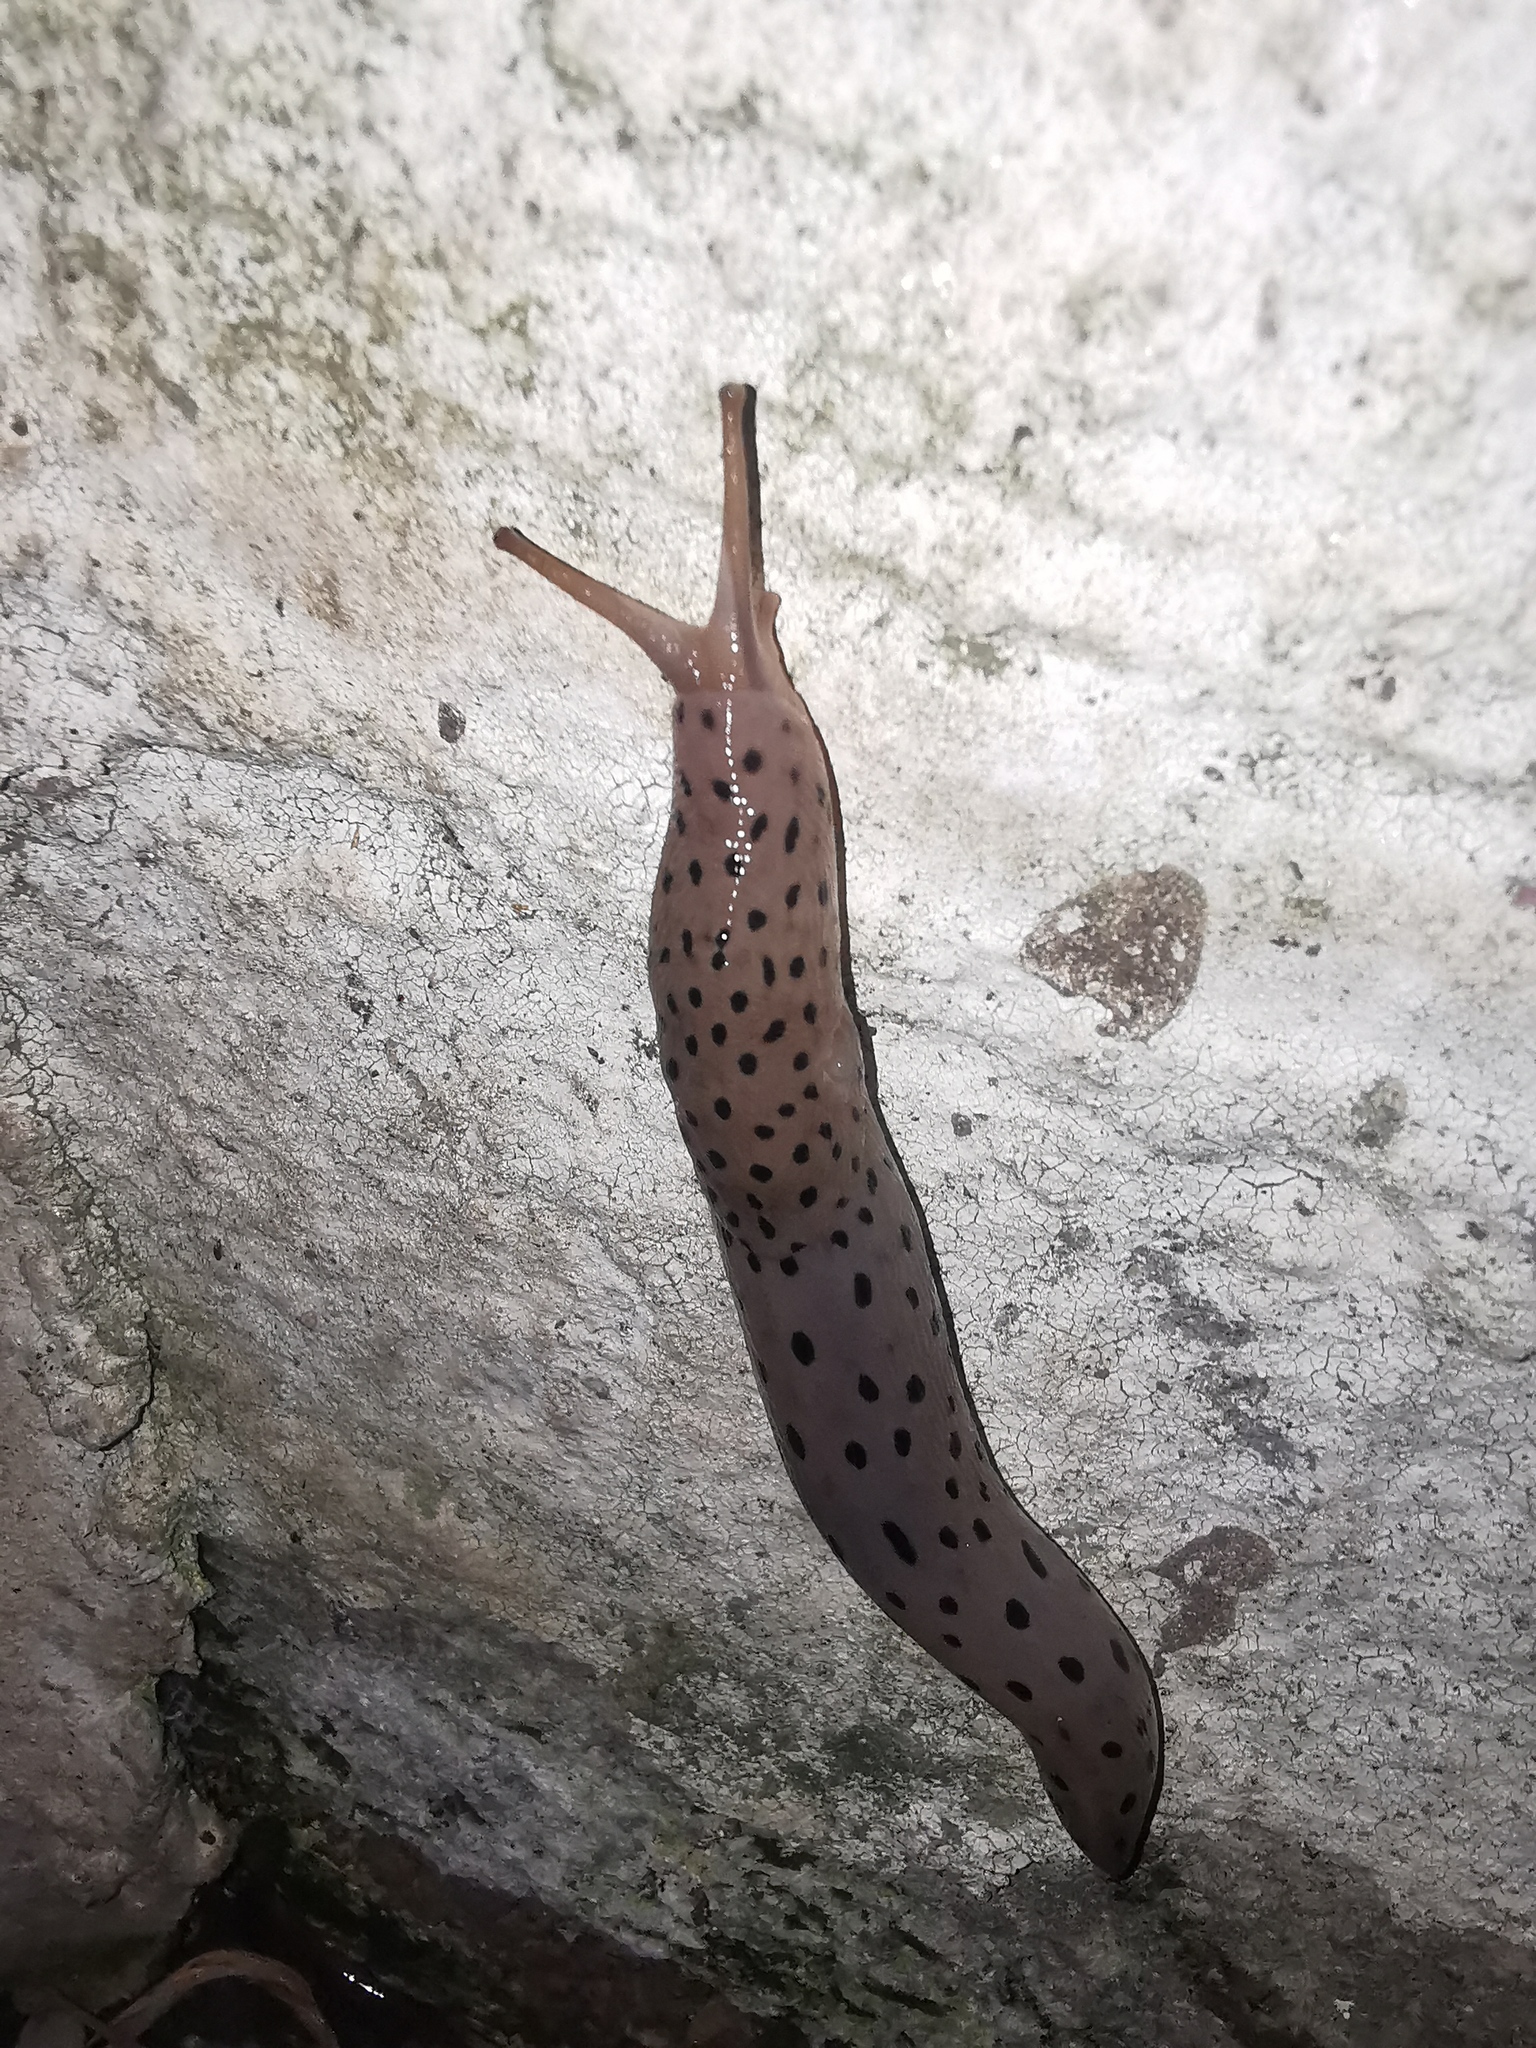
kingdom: Animalia
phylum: Mollusca
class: Gastropoda
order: Stylommatophora
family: Limacidae
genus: Limax
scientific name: Limax conemenosi
